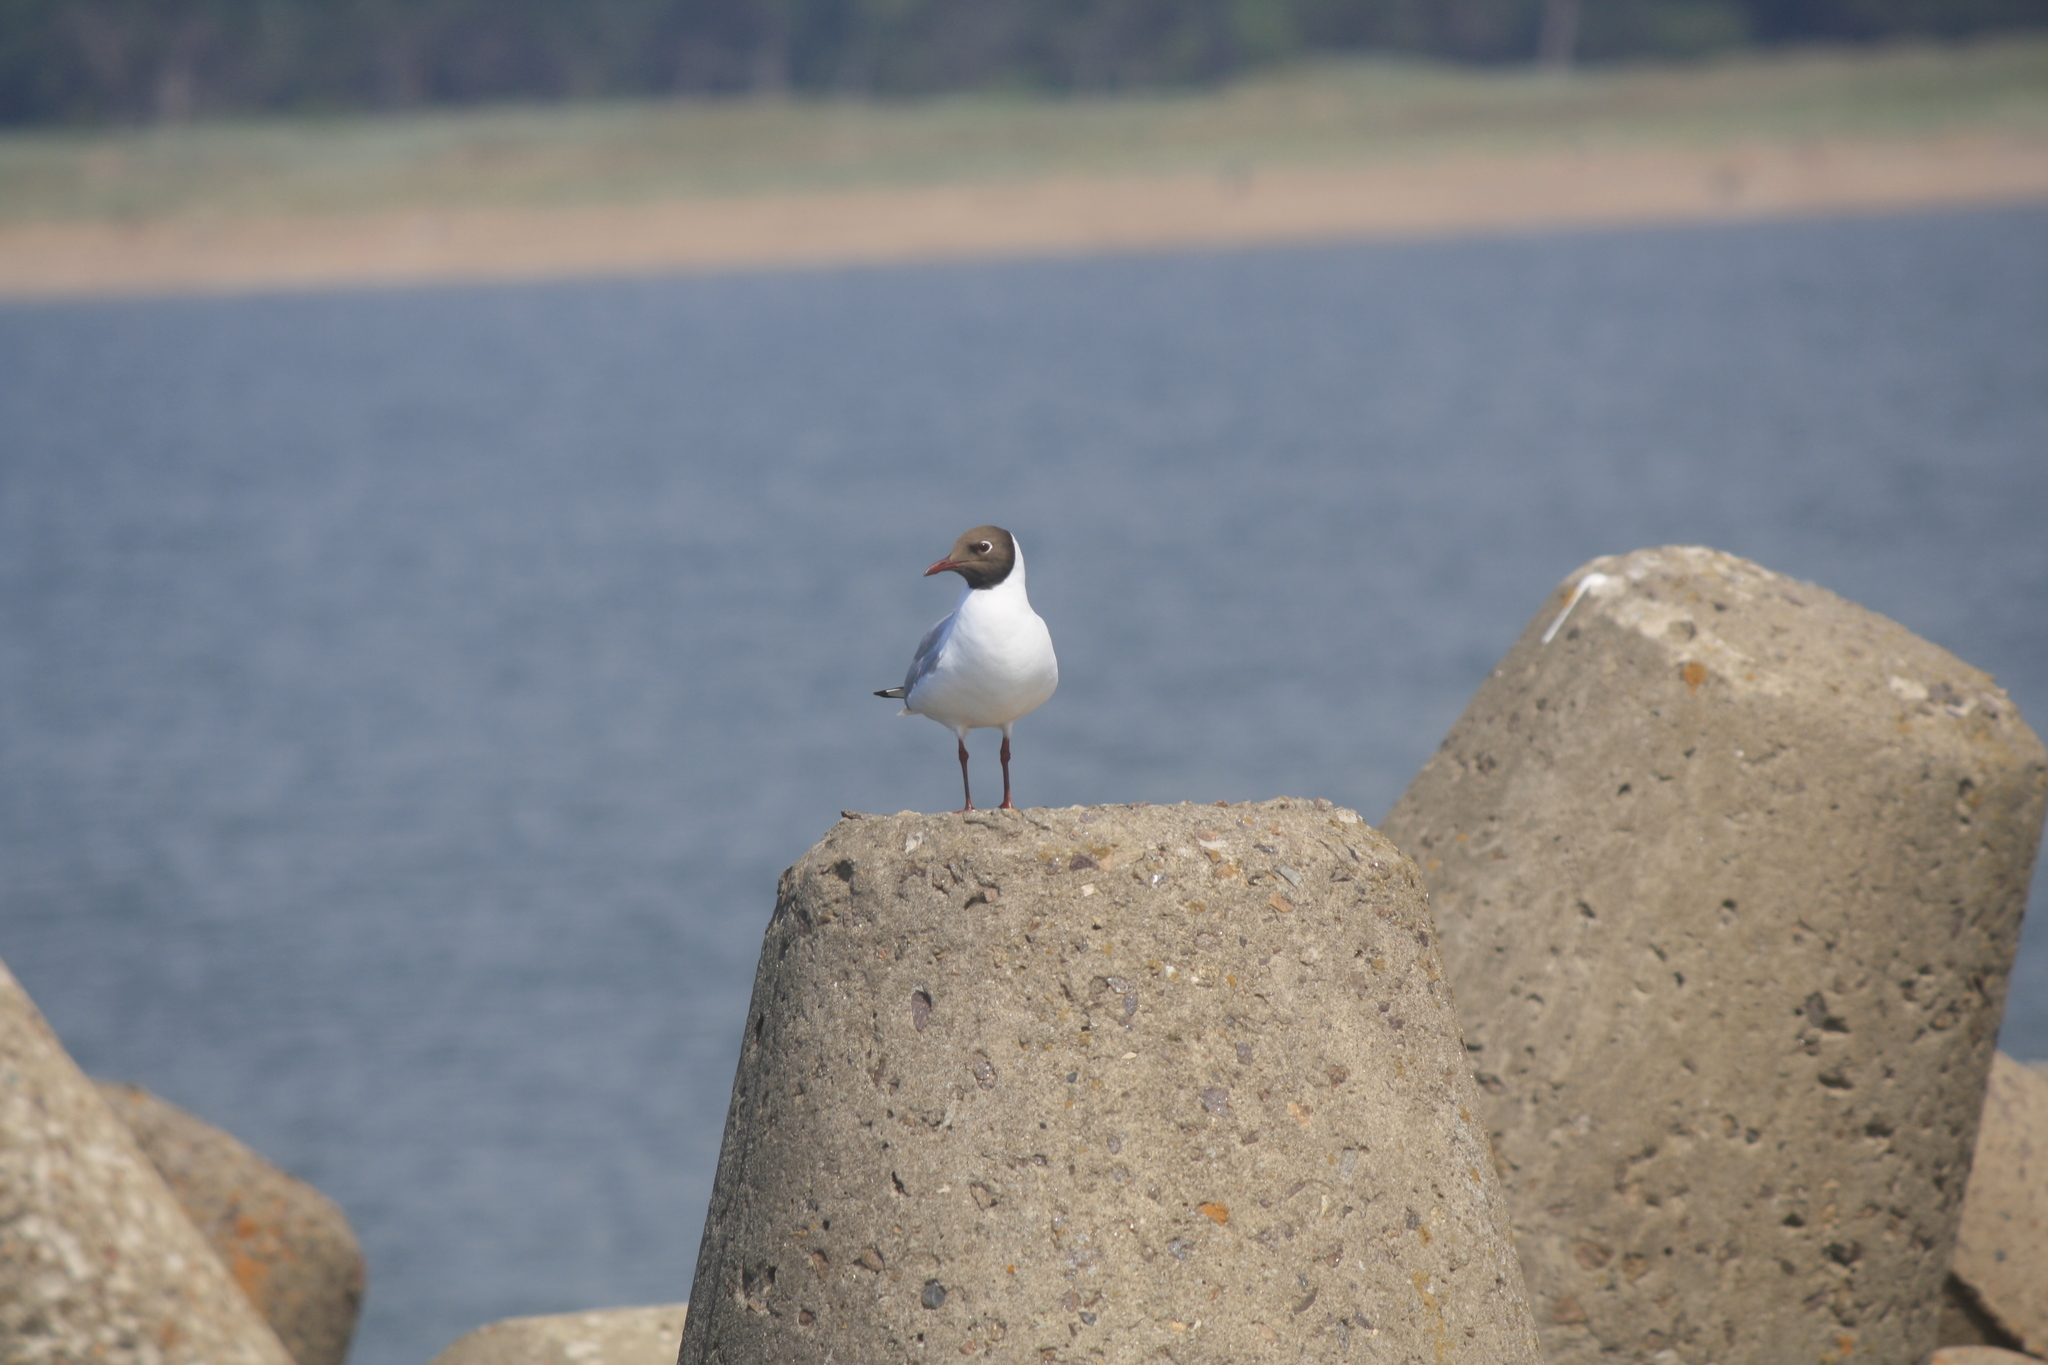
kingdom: Animalia
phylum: Chordata
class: Aves
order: Charadriiformes
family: Laridae
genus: Chroicocephalus
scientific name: Chroicocephalus ridibundus
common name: Black-headed gull
